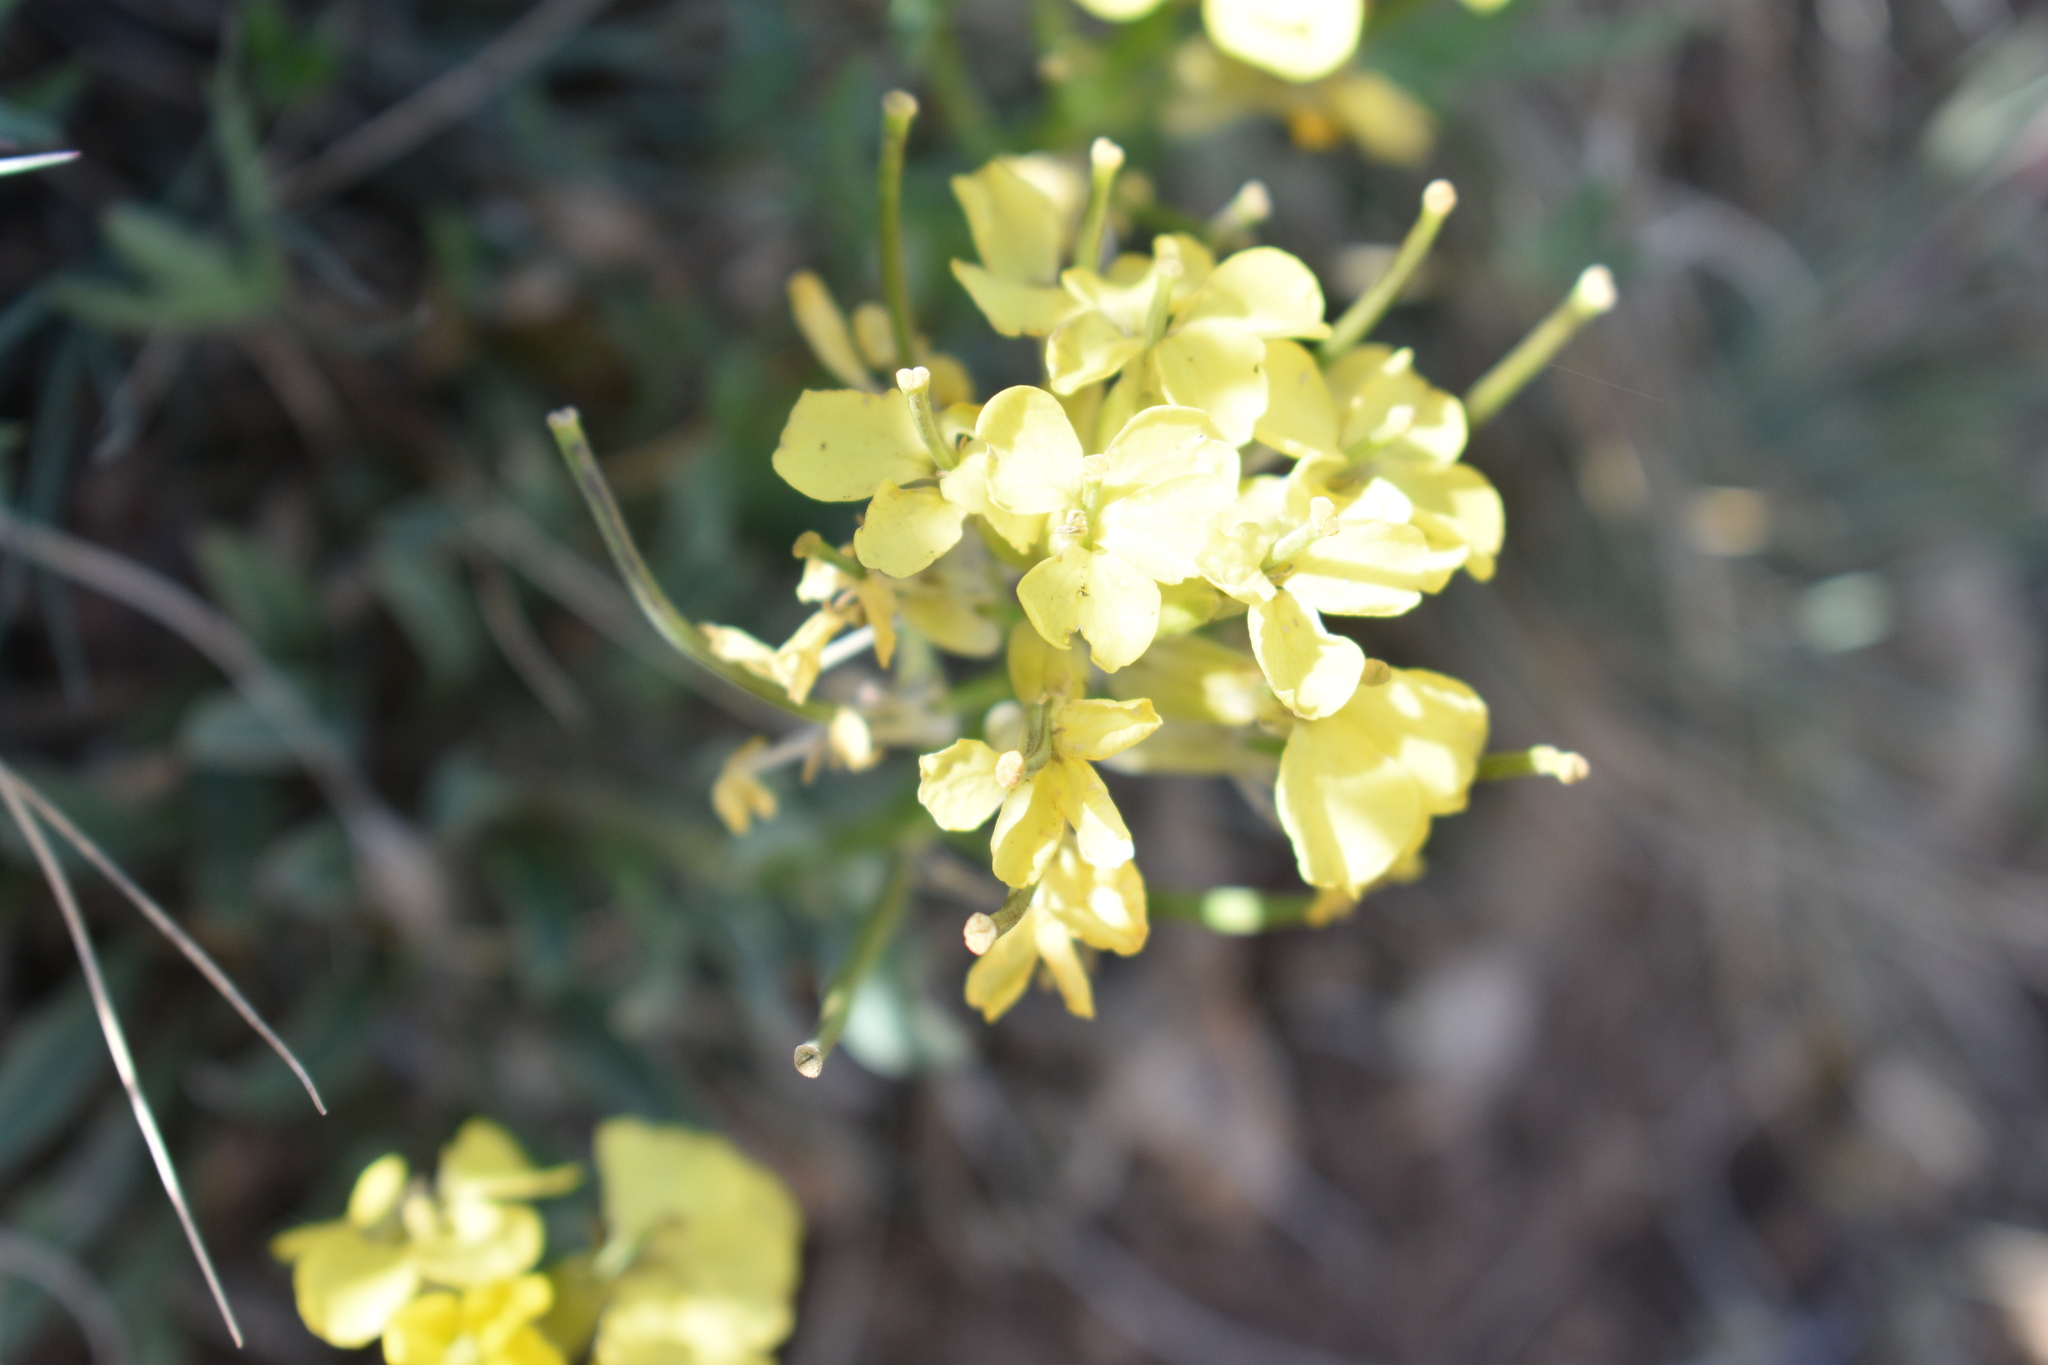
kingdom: Plantae
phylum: Tracheophyta
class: Magnoliopsida
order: Brassicales
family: Brassicaceae
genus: Erysimum
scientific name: Erysimum capitatum
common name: Western wallflower
